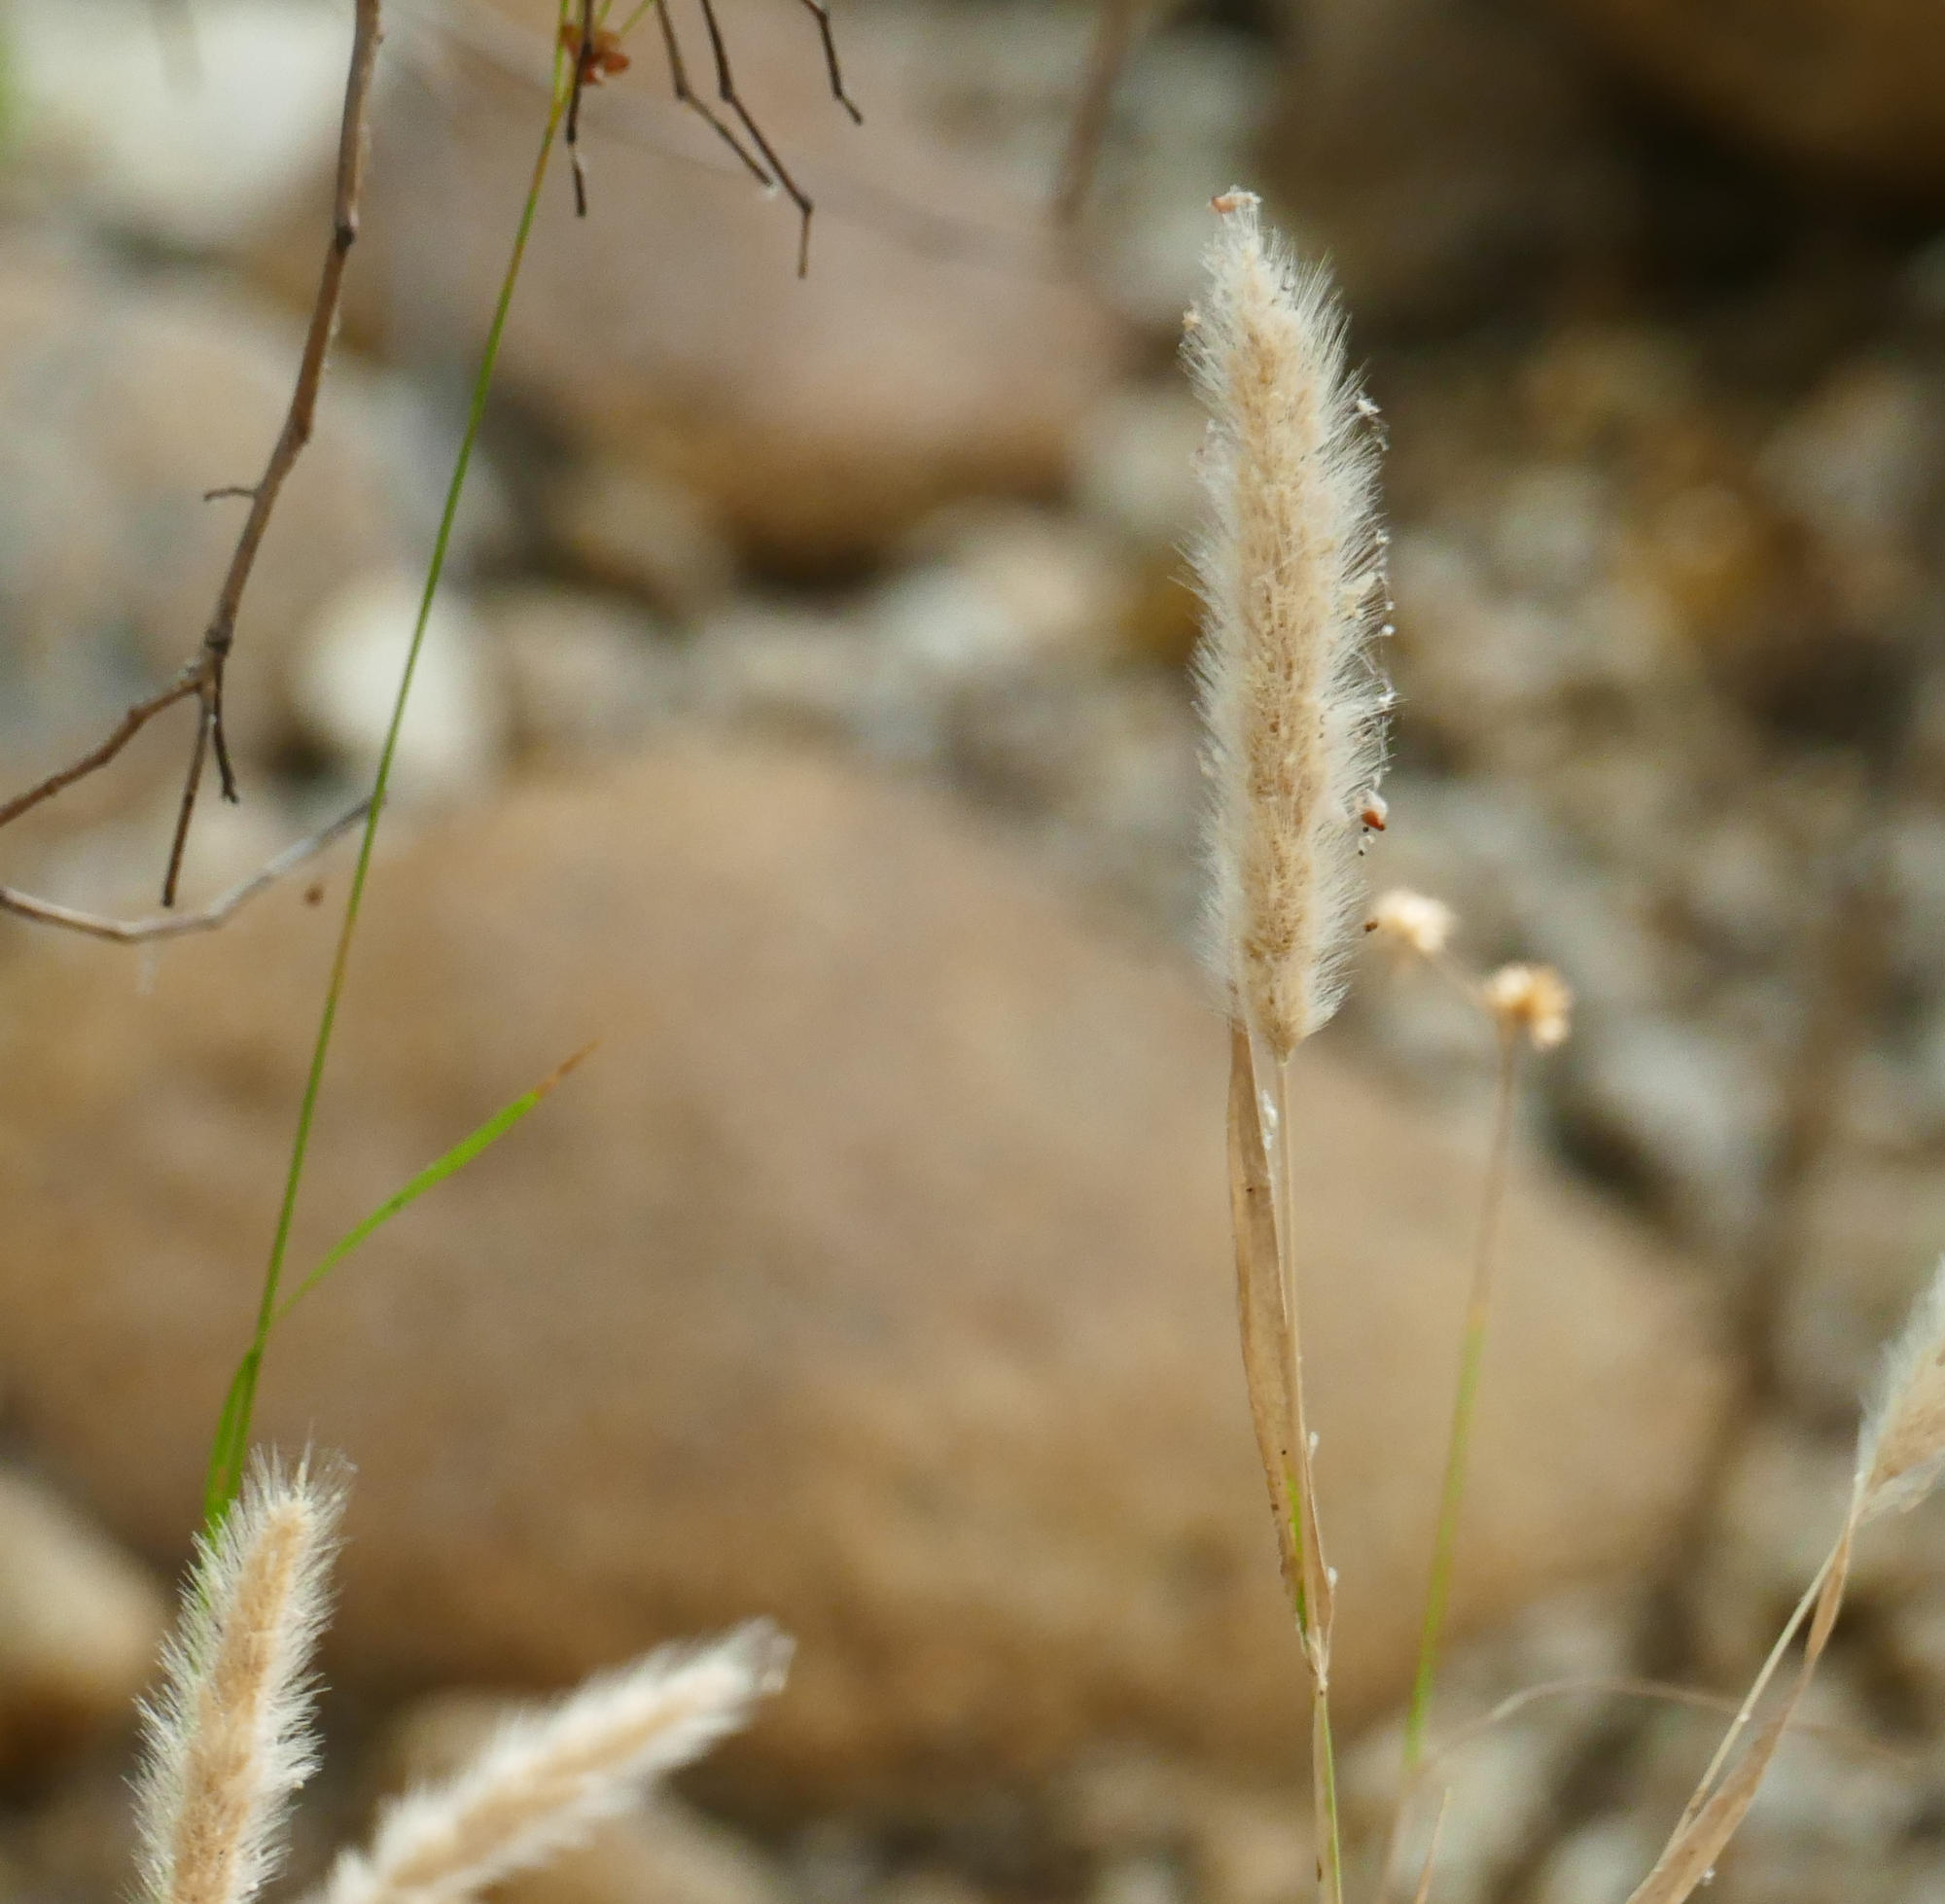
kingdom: Plantae
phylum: Tracheophyta
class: Liliopsida
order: Poales
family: Poaceae
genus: Polypogon
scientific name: Polypogon monspeliensis
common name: Annual rabbitsfoot grass
